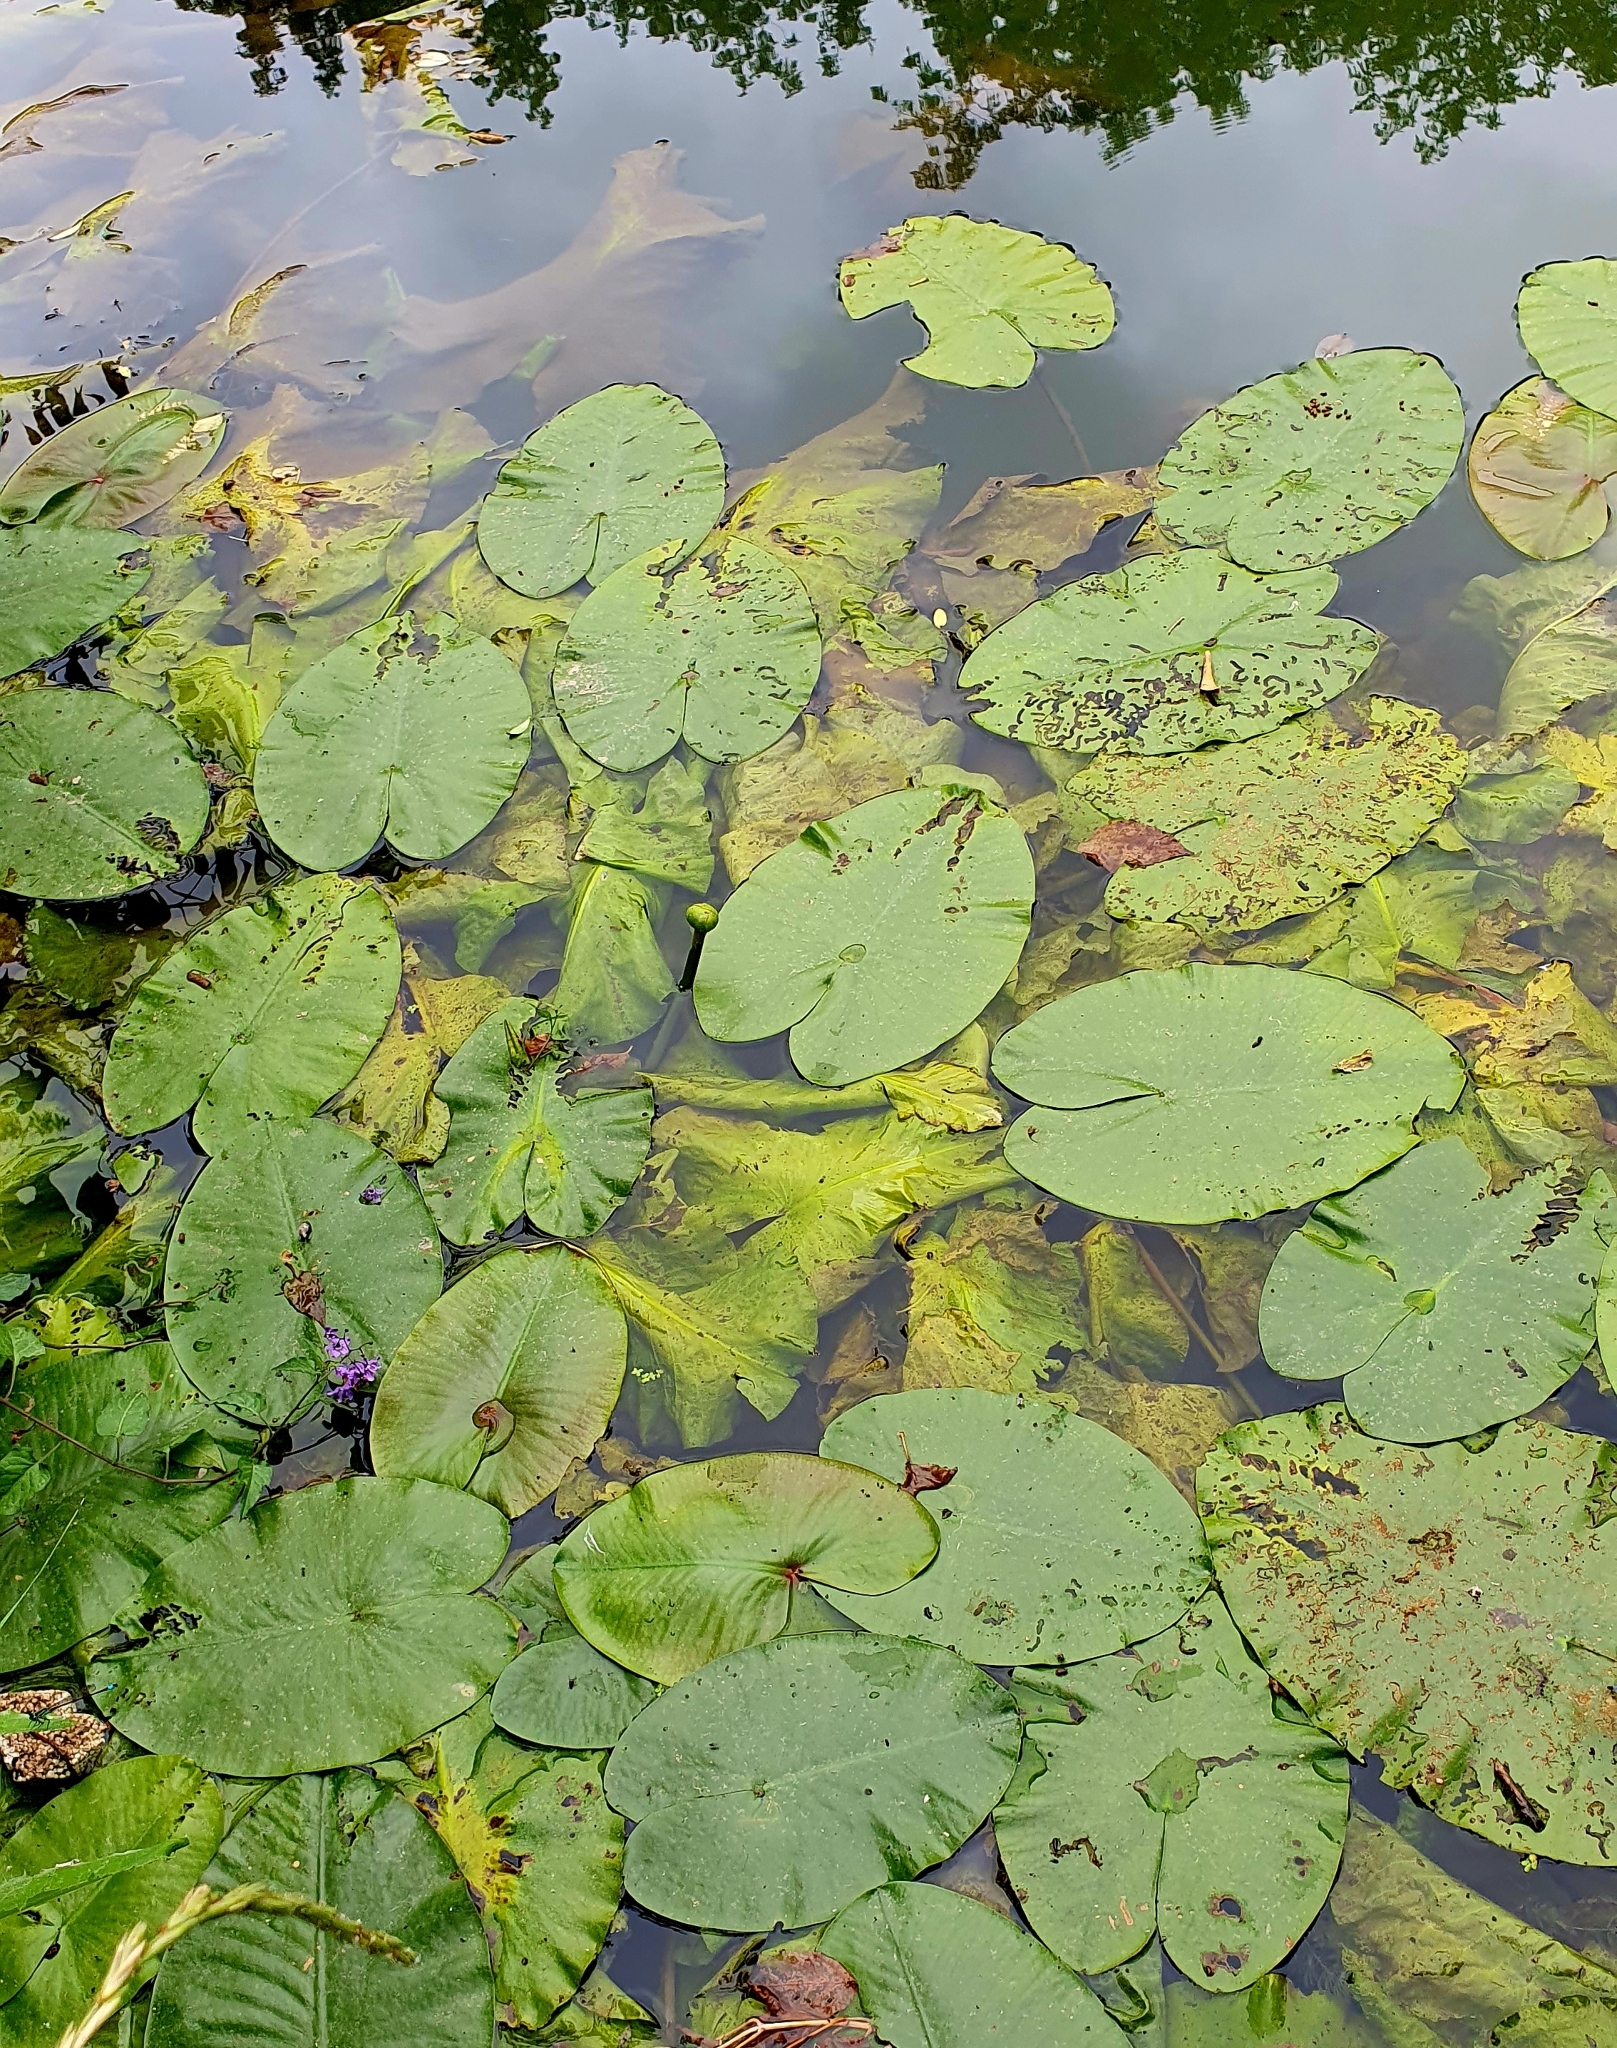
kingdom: Plantae
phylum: Tracheophyta
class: Magnoliopsida
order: Nymphaeales
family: Nymphaeaceae
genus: Nuphar
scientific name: Nuphar lutea
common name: Yellow water-lily
